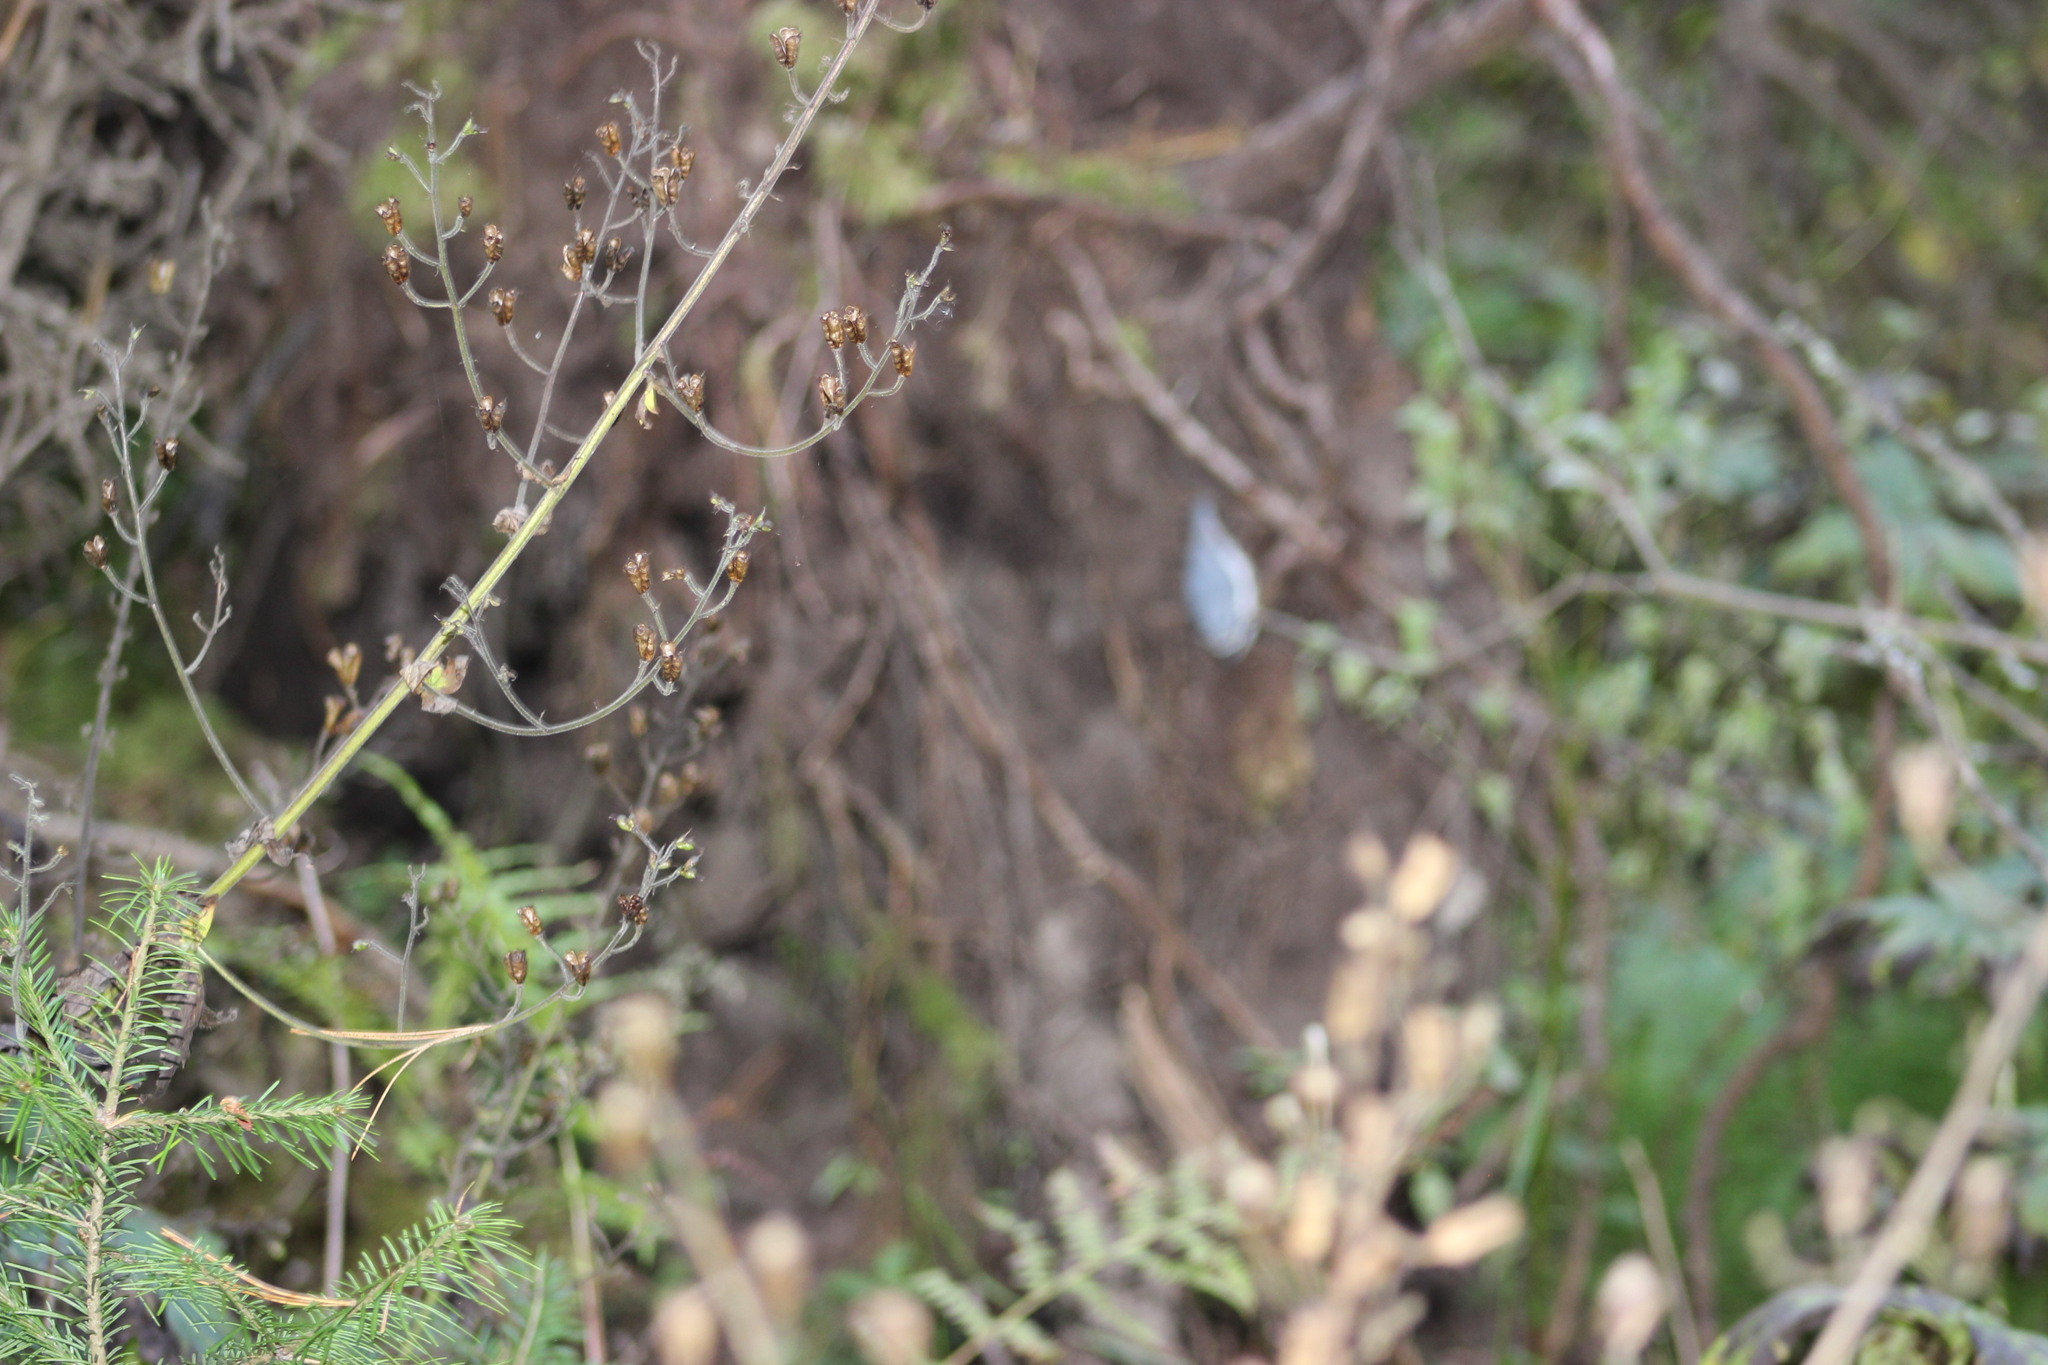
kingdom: Plantae
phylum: Tracheophyta
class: Magnoliopsida
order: Ranunculales
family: Ranunculaceae
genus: Aconitum
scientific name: Aconitum septentrionale
